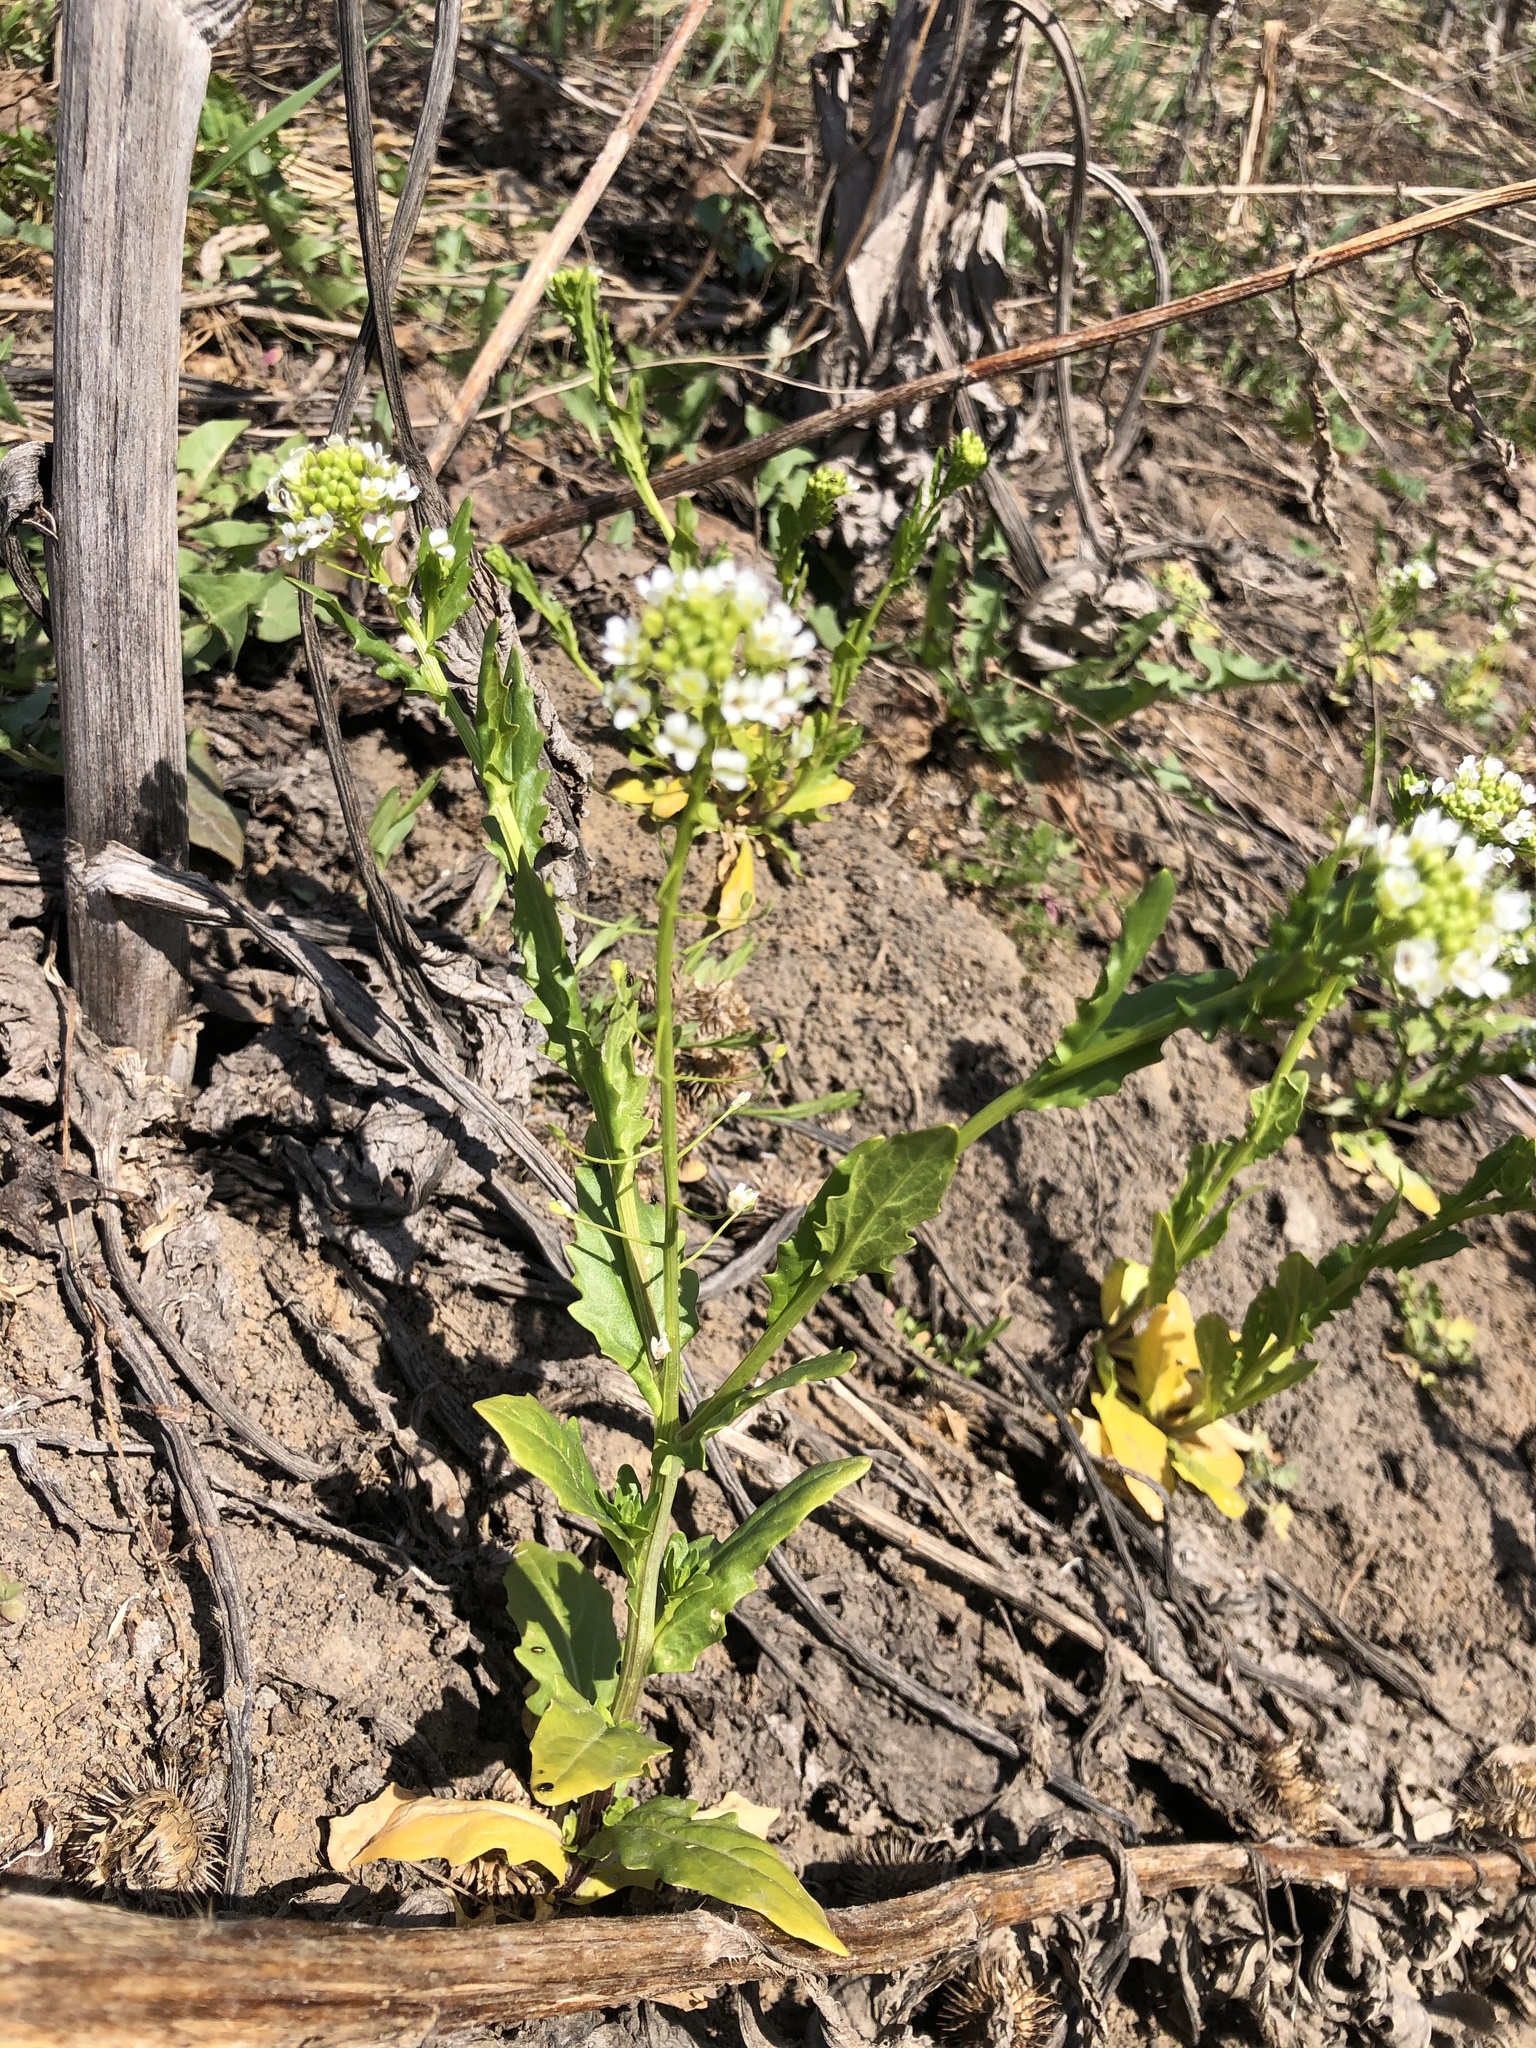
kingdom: Plantae
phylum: Tracheophyta
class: Magnoliopsida
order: Brassicales
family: Brassicaceae
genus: Thlaspi
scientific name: Thlaspi arvense
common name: Field pennycress
